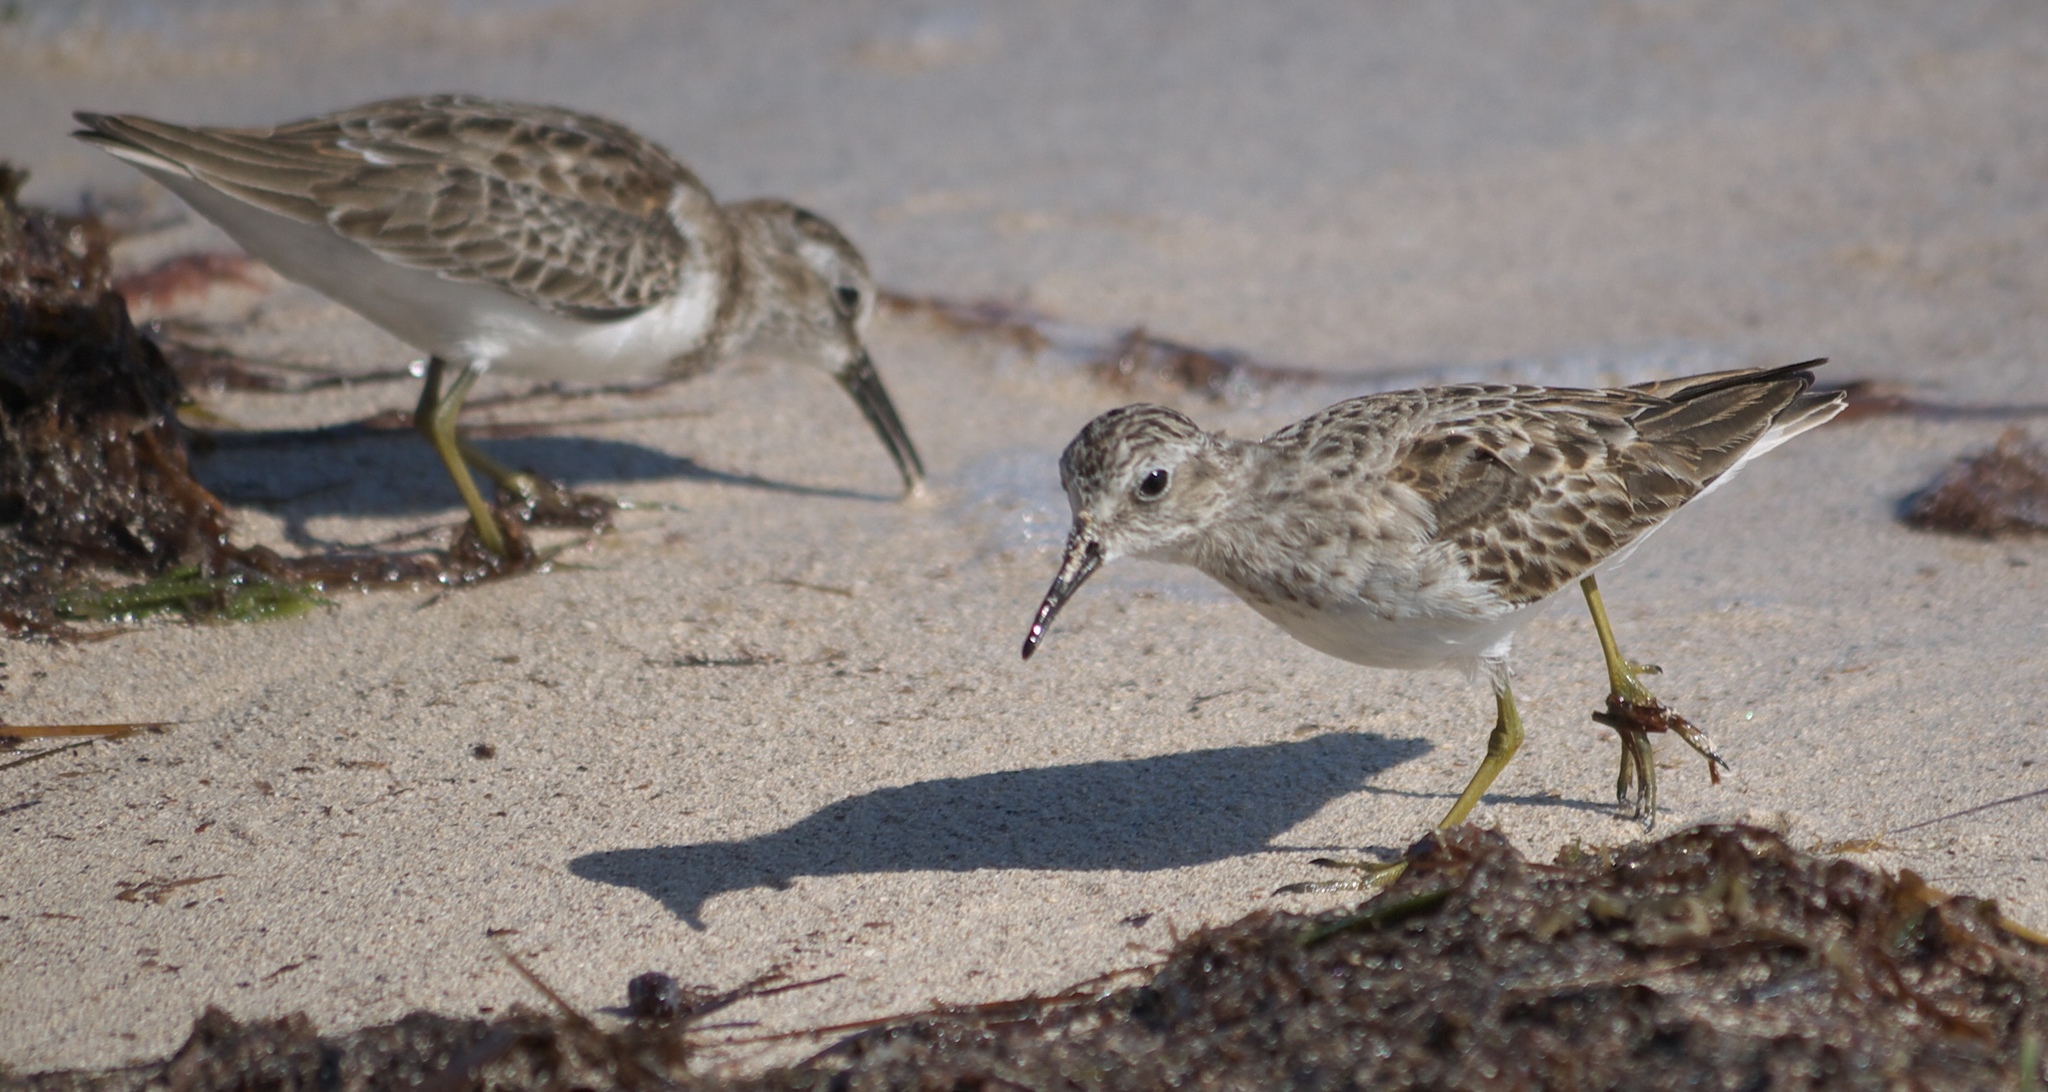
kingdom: Animalia
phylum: Chordata
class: Aves
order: Charadriiformes
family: Scolopacidae
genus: Calidris
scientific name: Calidris minutilla
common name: Least sandpiper
